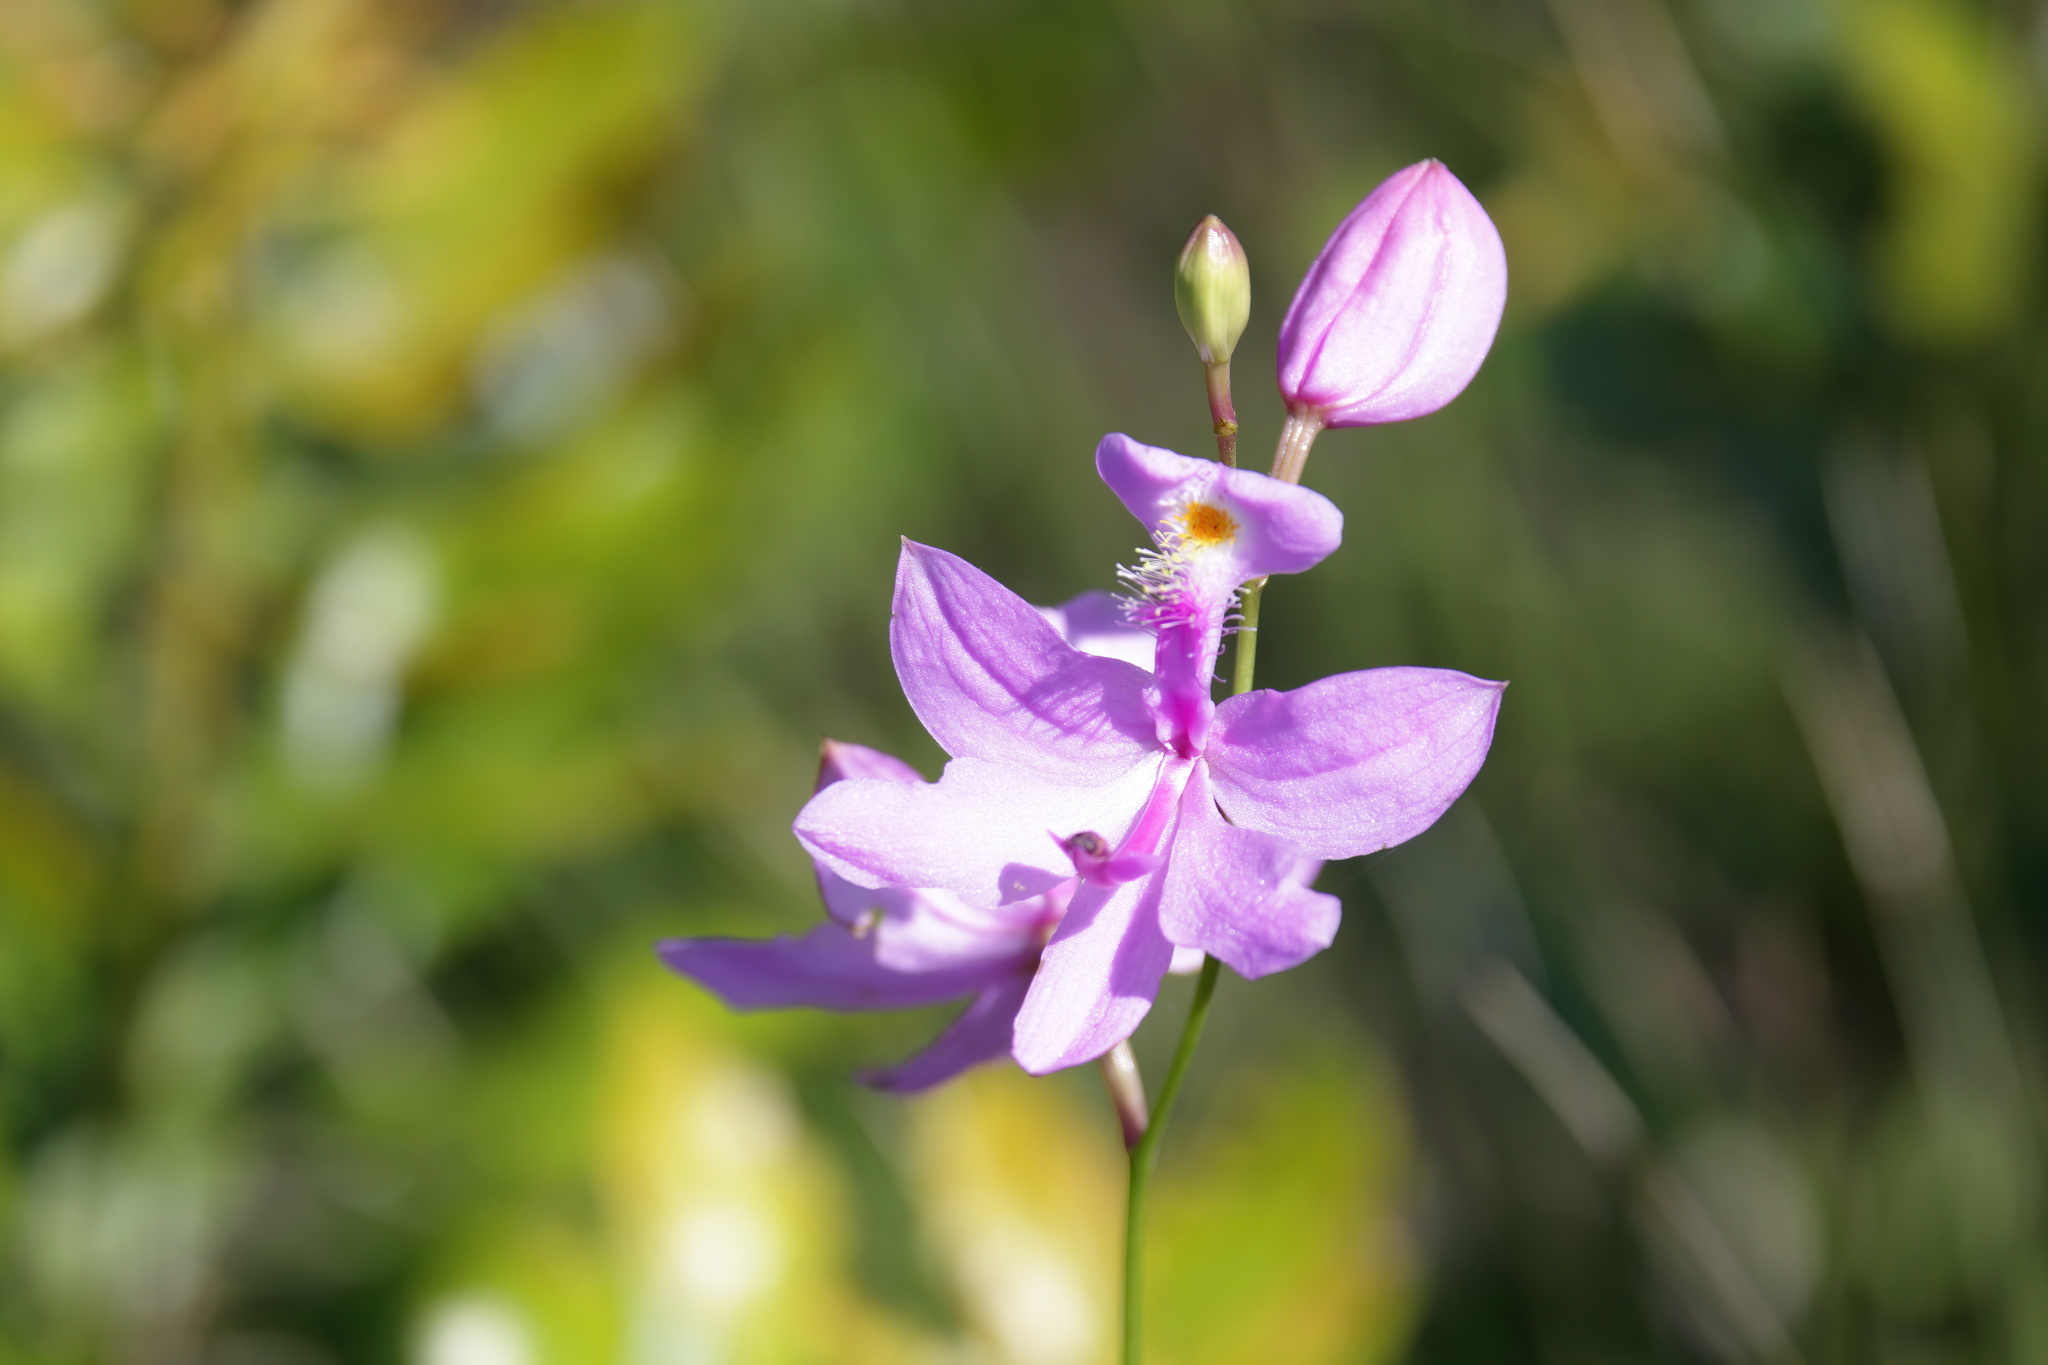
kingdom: Plantae
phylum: Tracheophyta
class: Liliopsida
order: Asparagales
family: Orchidaceae
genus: Calopogon
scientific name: Calopogon tuberosus
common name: Grass-pink
